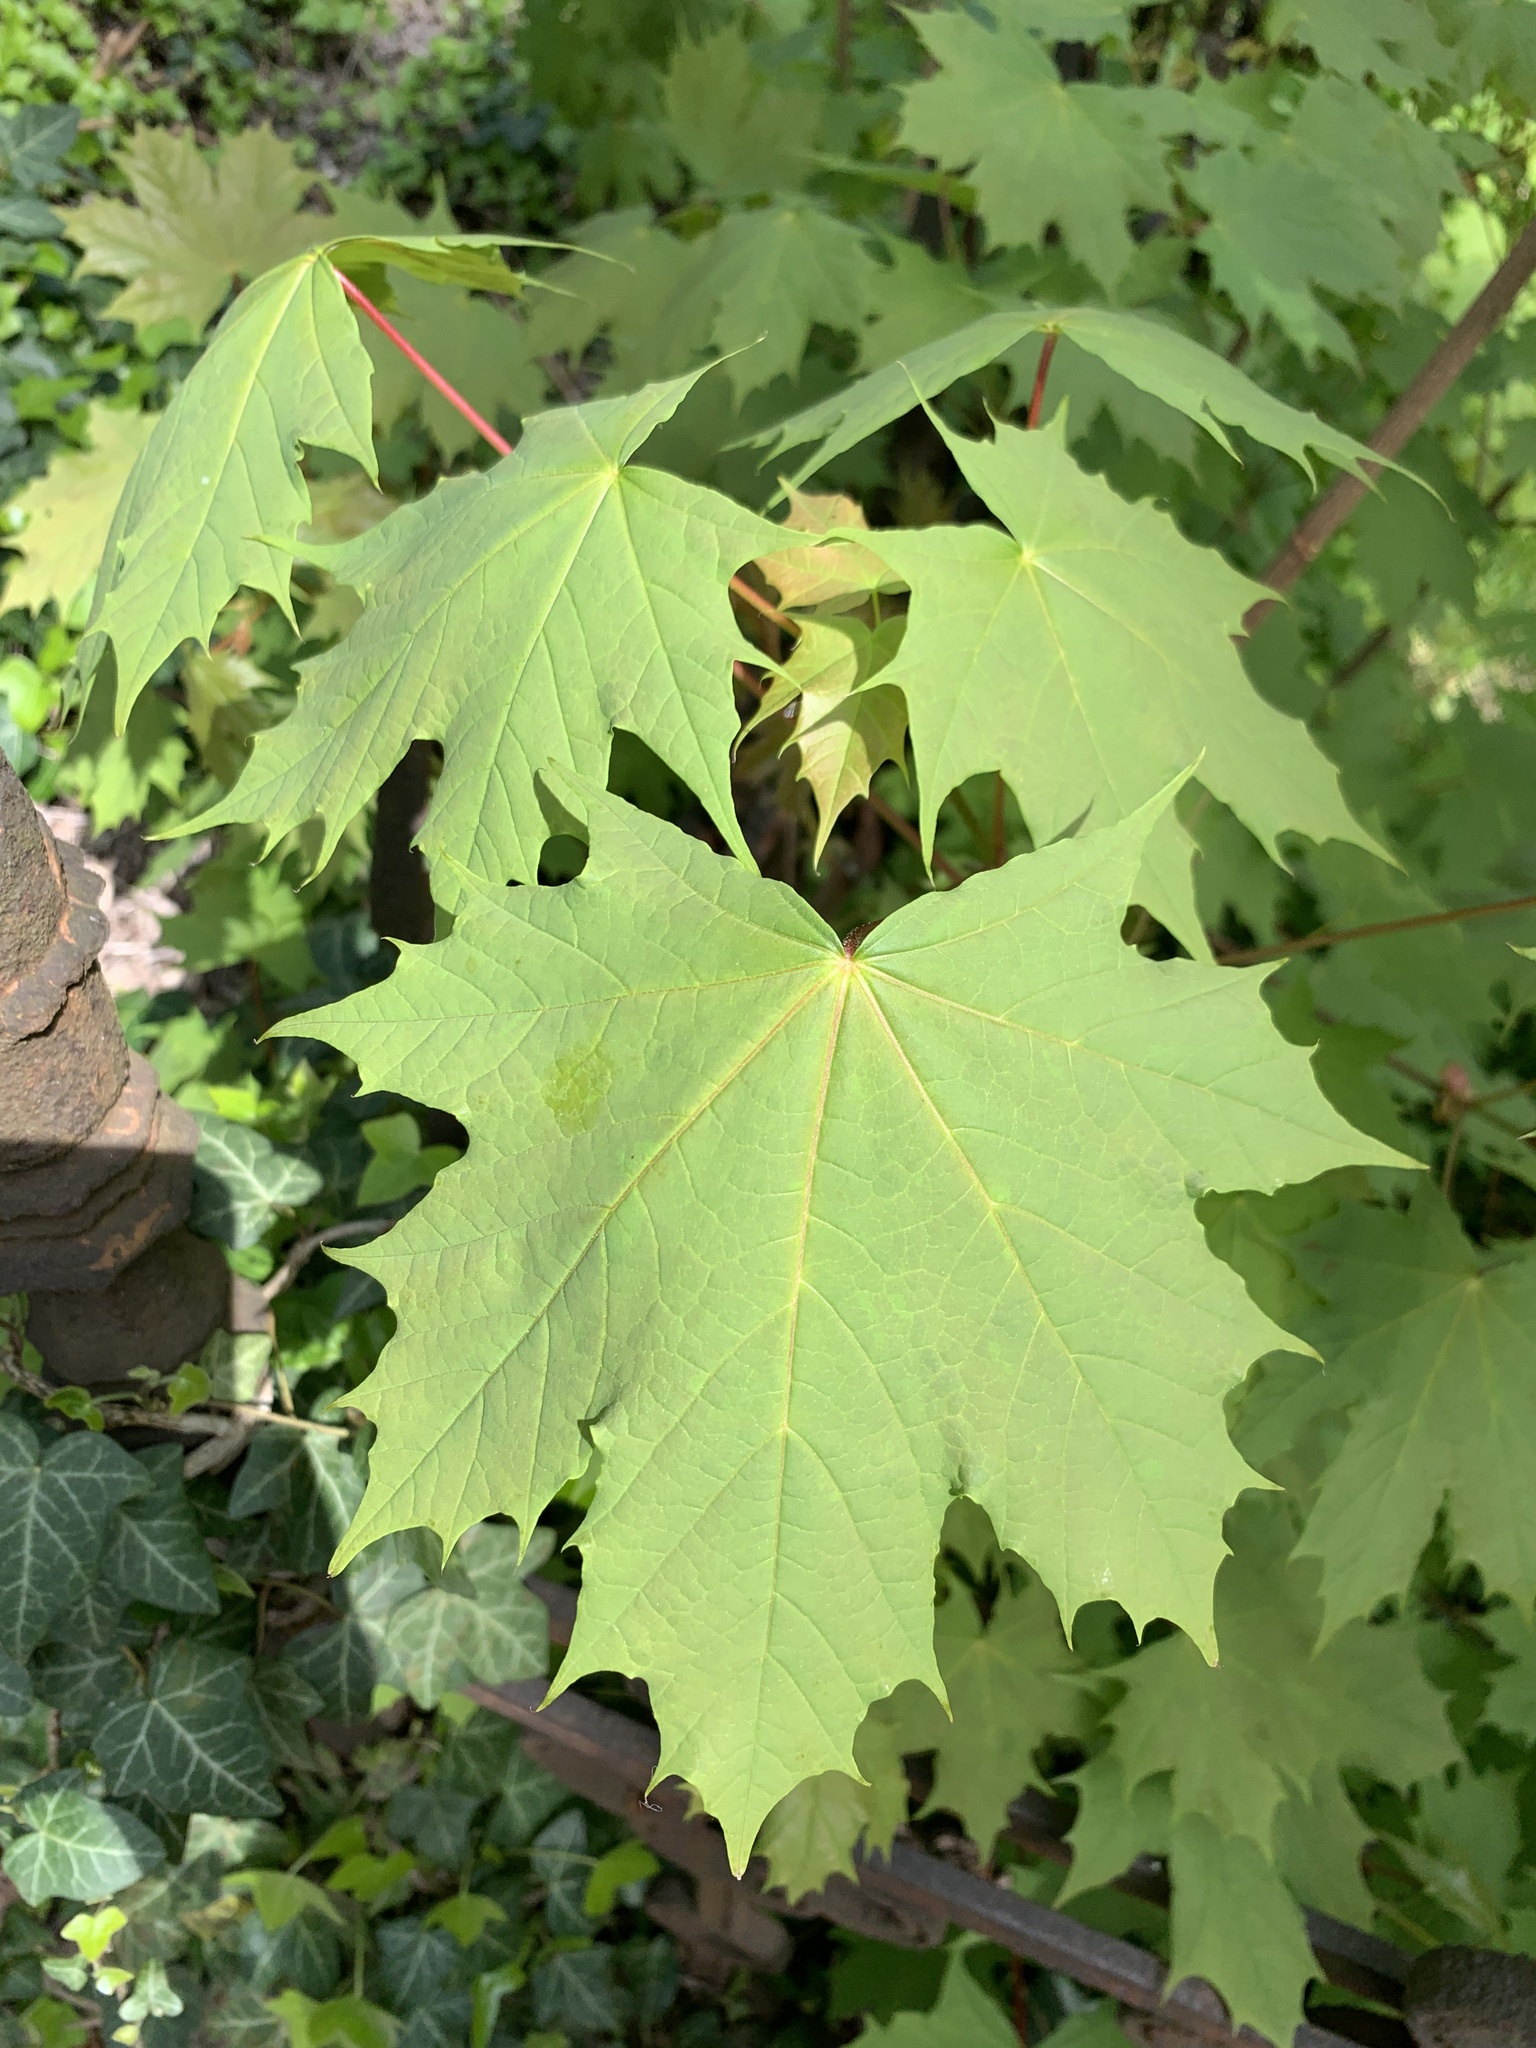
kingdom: Plantae
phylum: Tracheophyta
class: Magnoliopsida
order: Sapindales
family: Sapindaceae
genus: Acer
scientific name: Acer platanoides
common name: Norway maple
